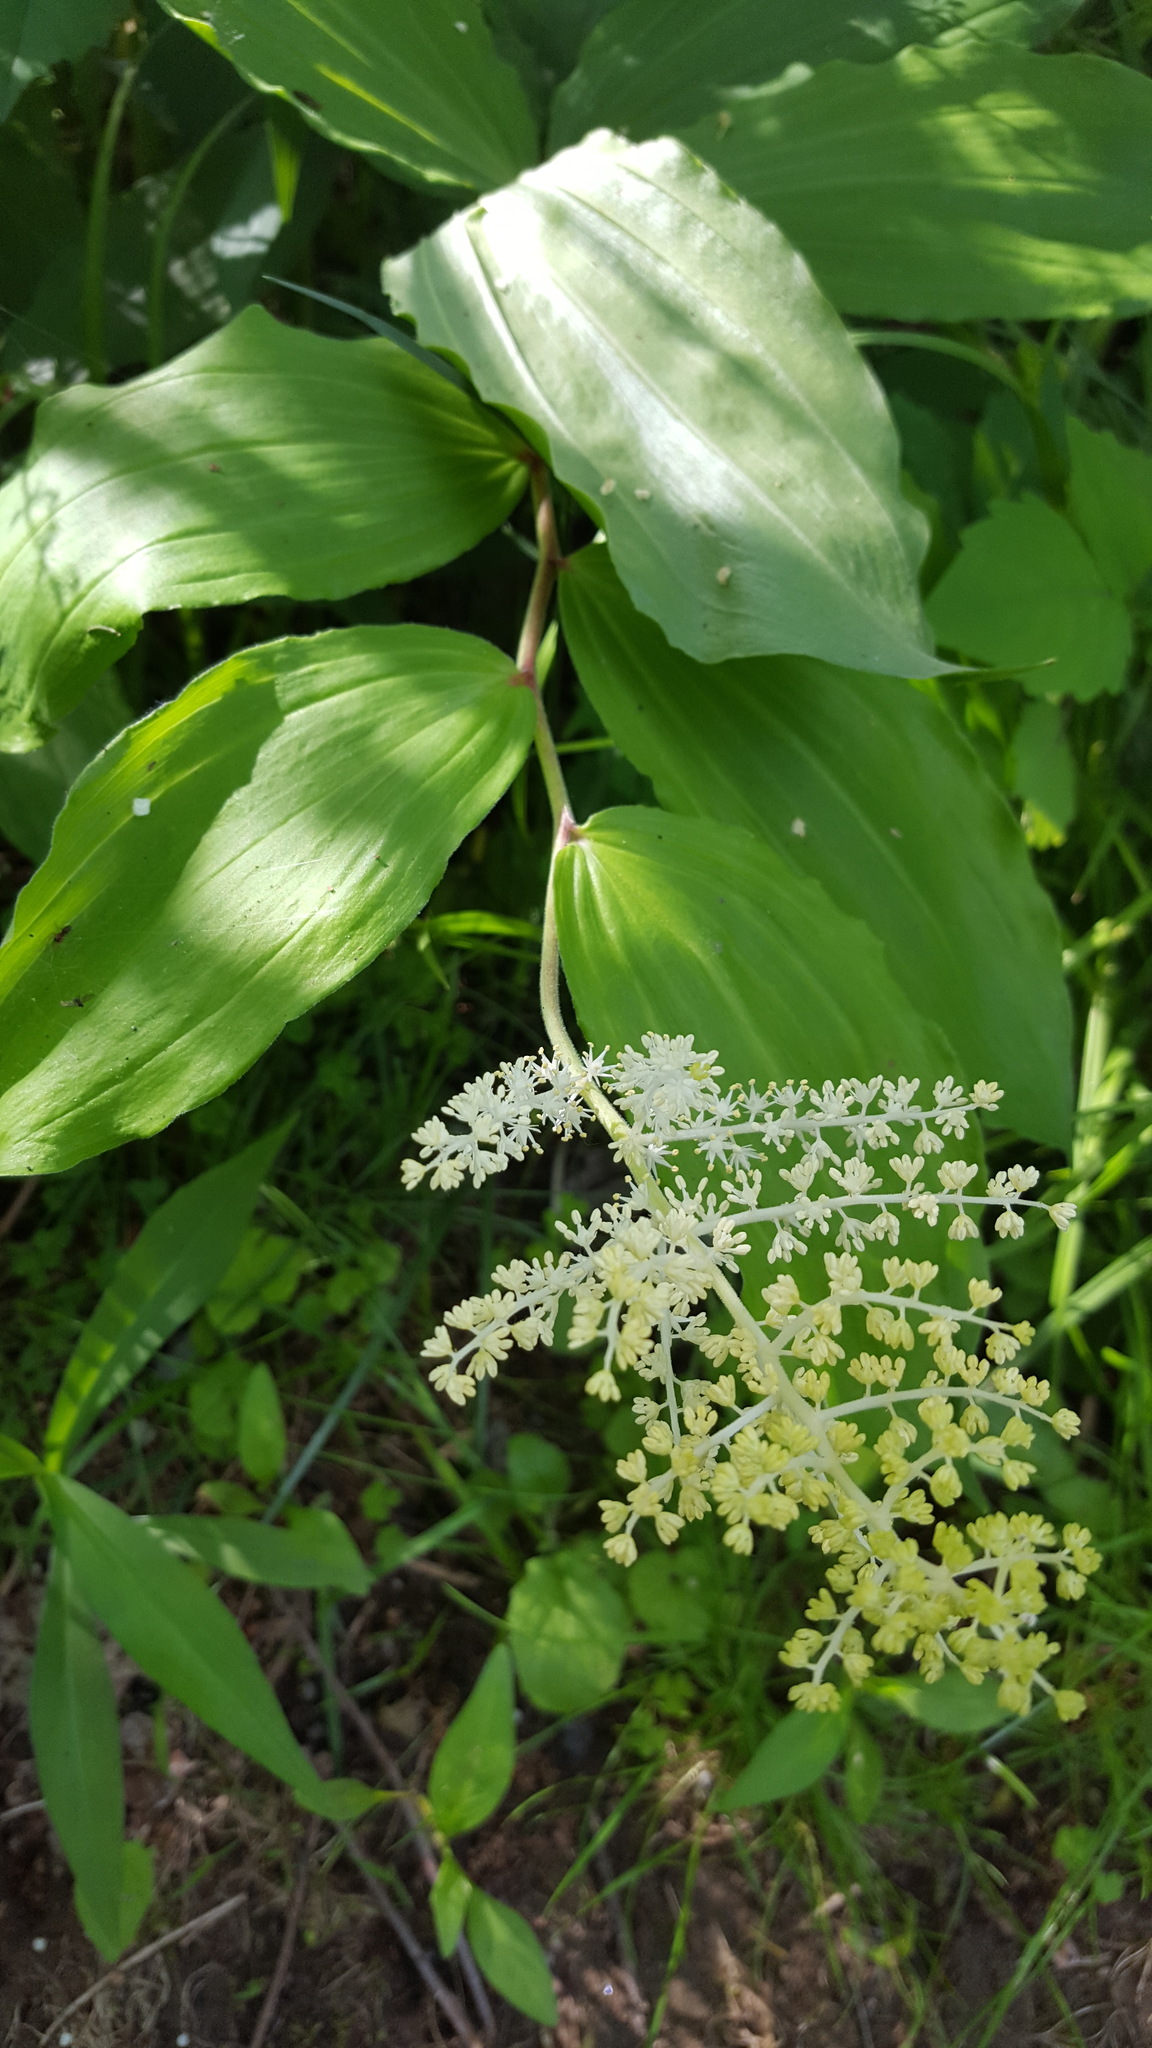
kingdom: Plantae
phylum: Tracheophyta
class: Liliopsida
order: Asparagales
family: Asparagaceae
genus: Maianthemum
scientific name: Maianthemum racemosum
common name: False spikenard
